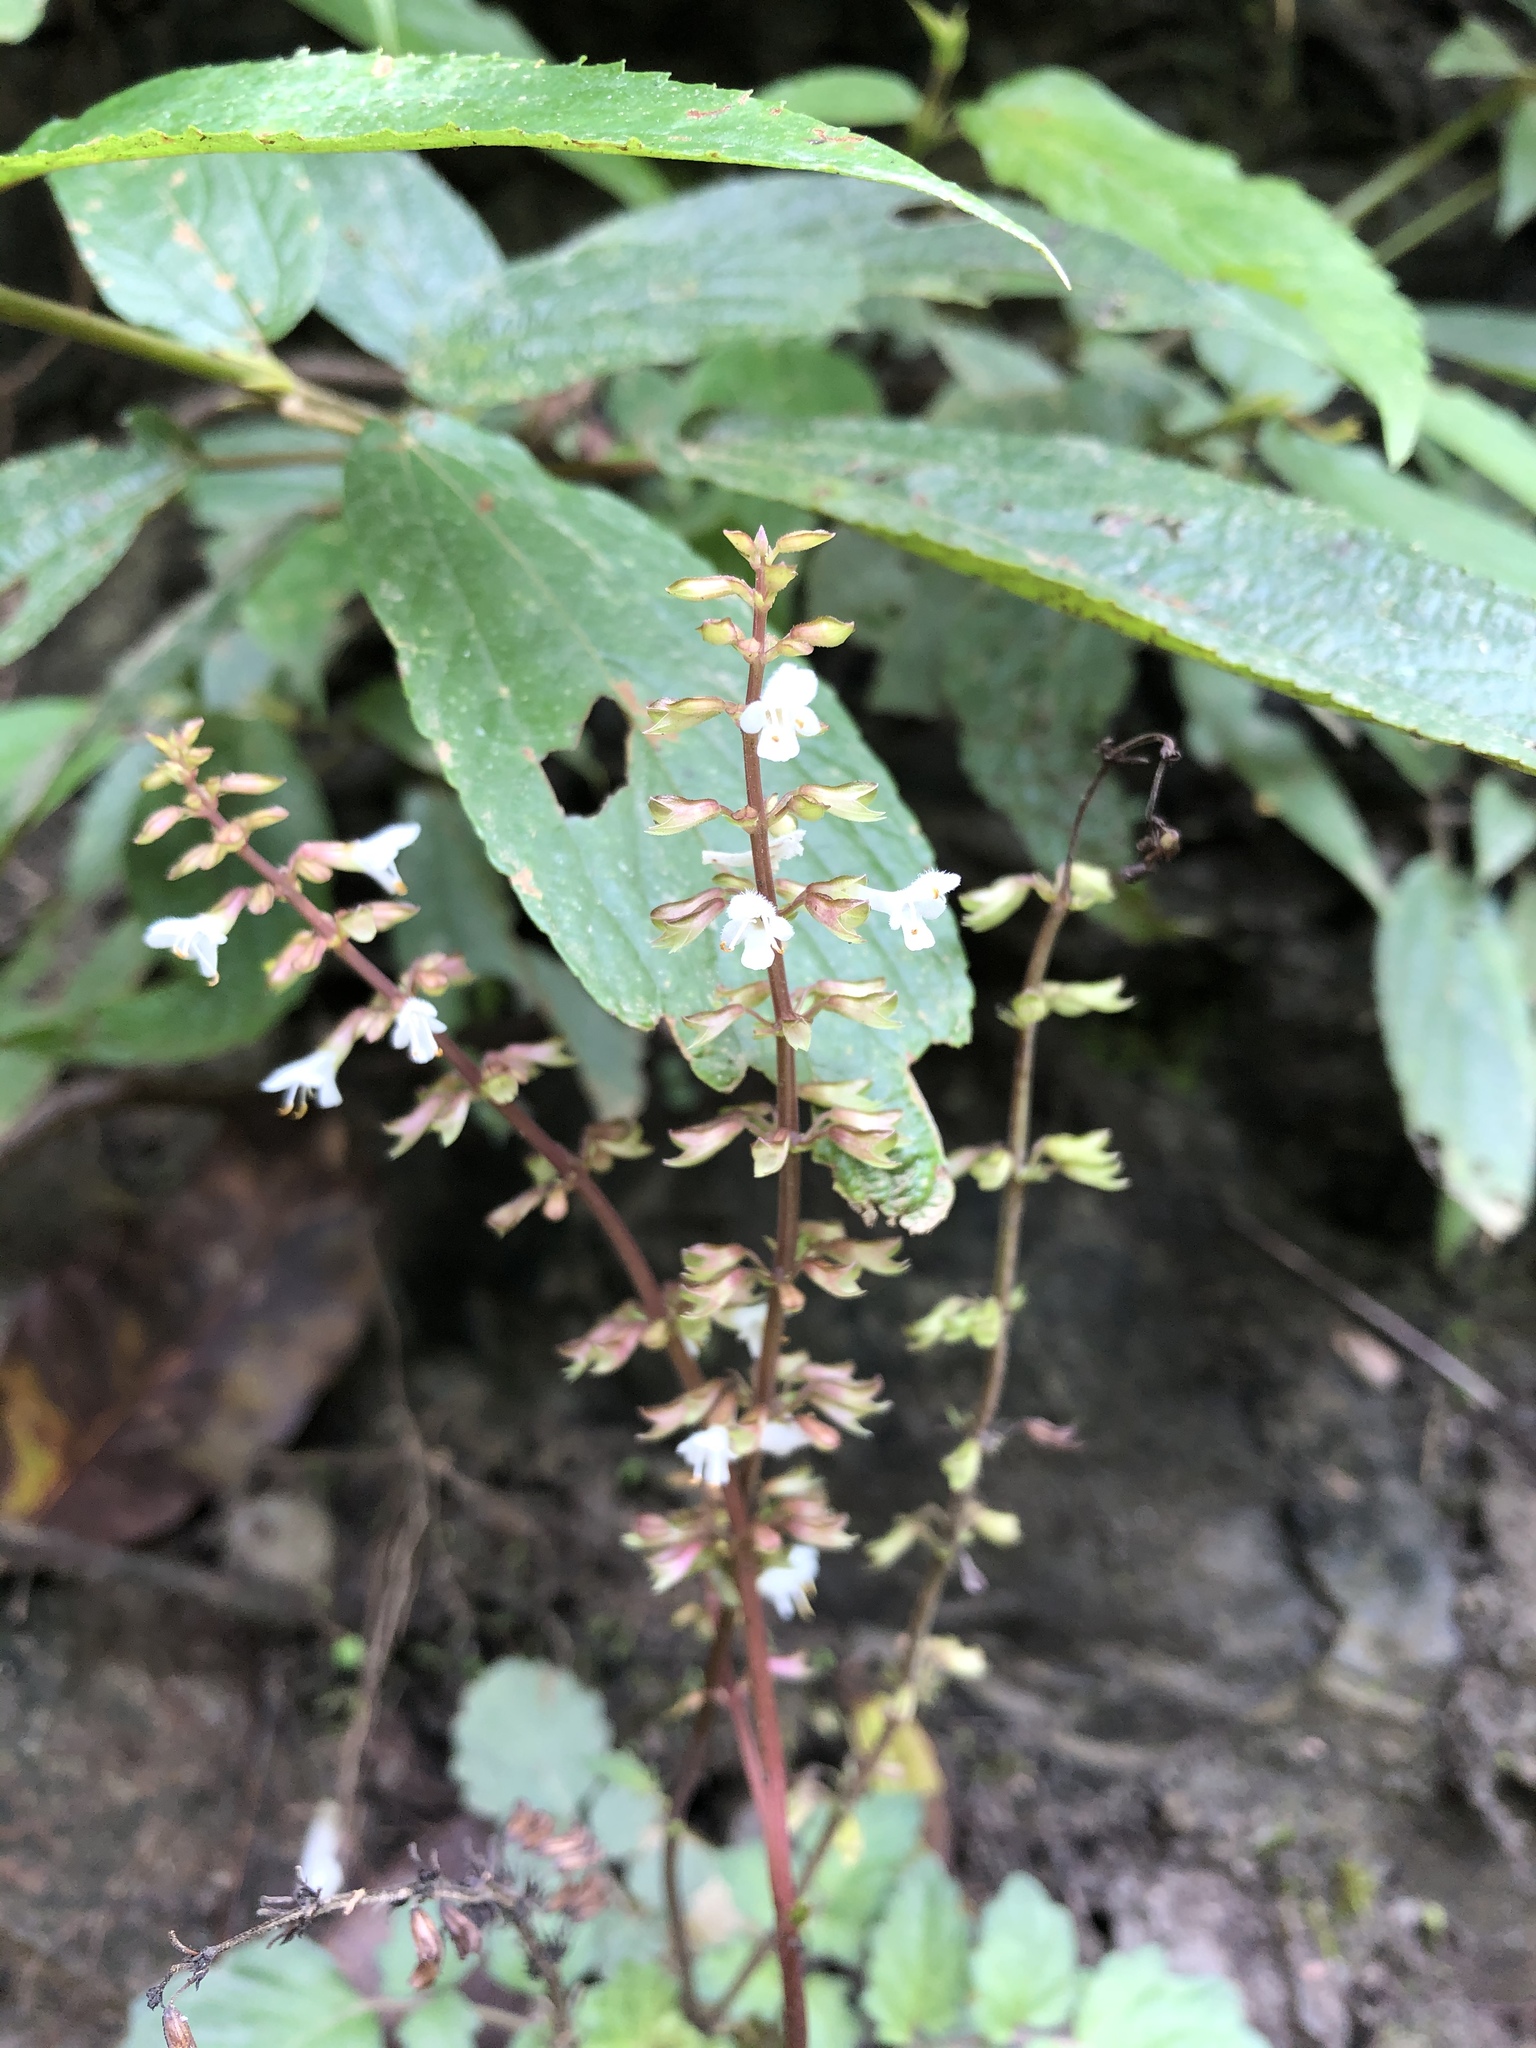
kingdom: Plantae
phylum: Tracheophyta
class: Magnoliopsida
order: Lamiales
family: Lamiaceae
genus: Salvia
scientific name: Salvia hayatae
